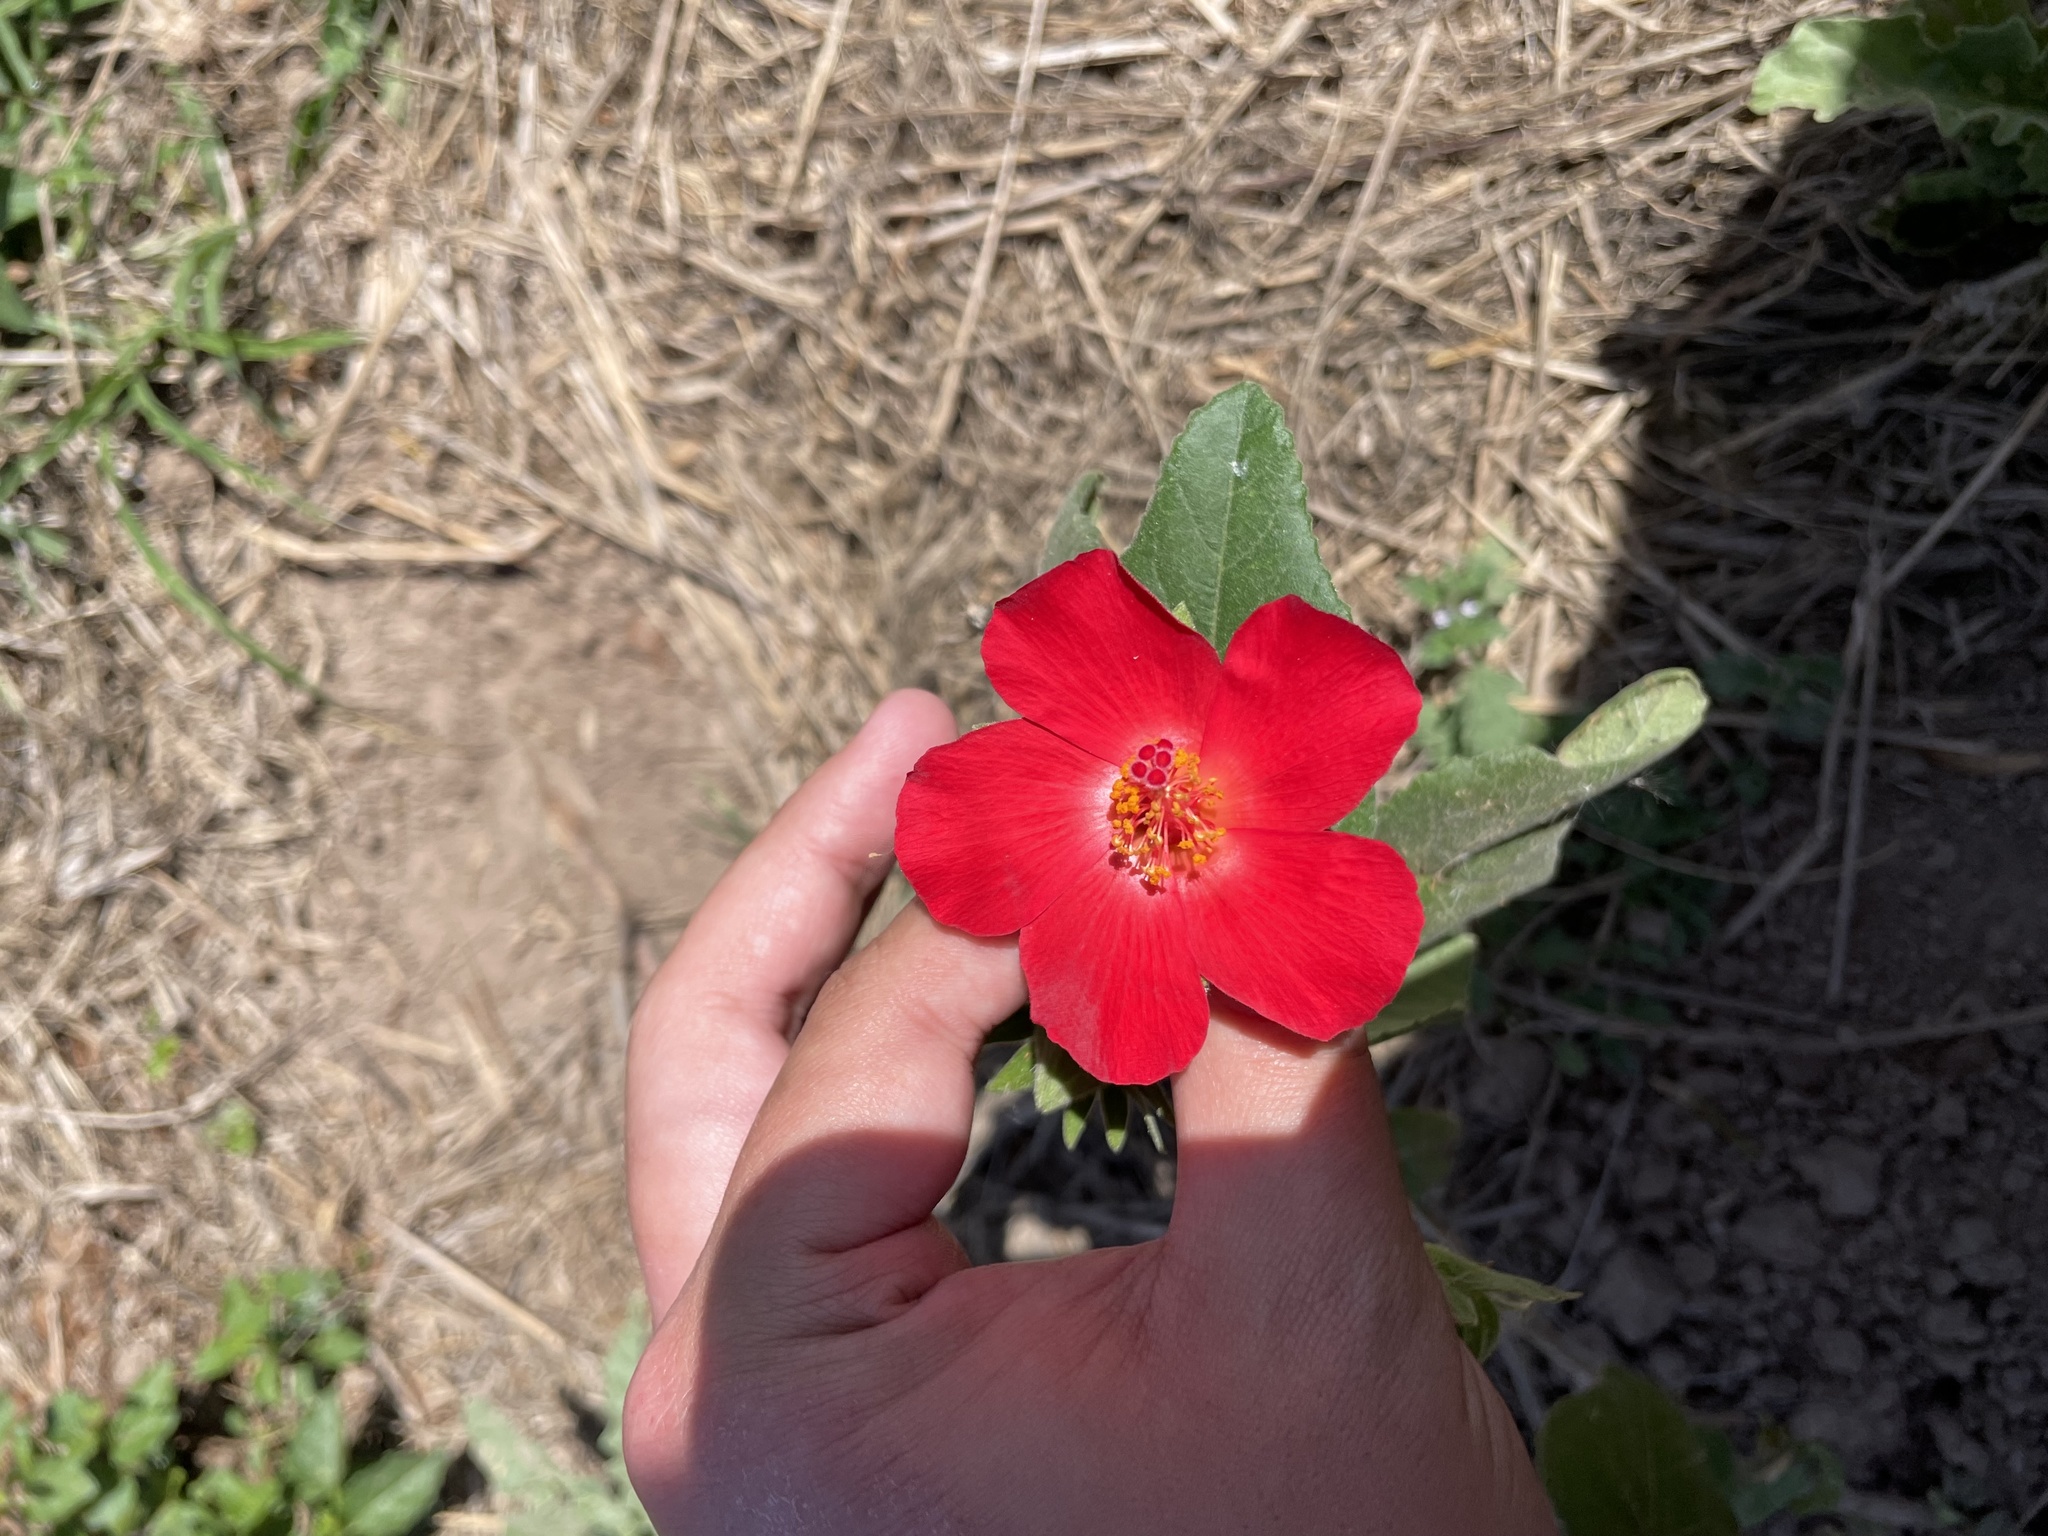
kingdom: Plantae
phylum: Tracheophyta
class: Magnoliopsida
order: Malvales
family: Malvaceae
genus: Hibiscus
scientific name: Hibiscus martianus
